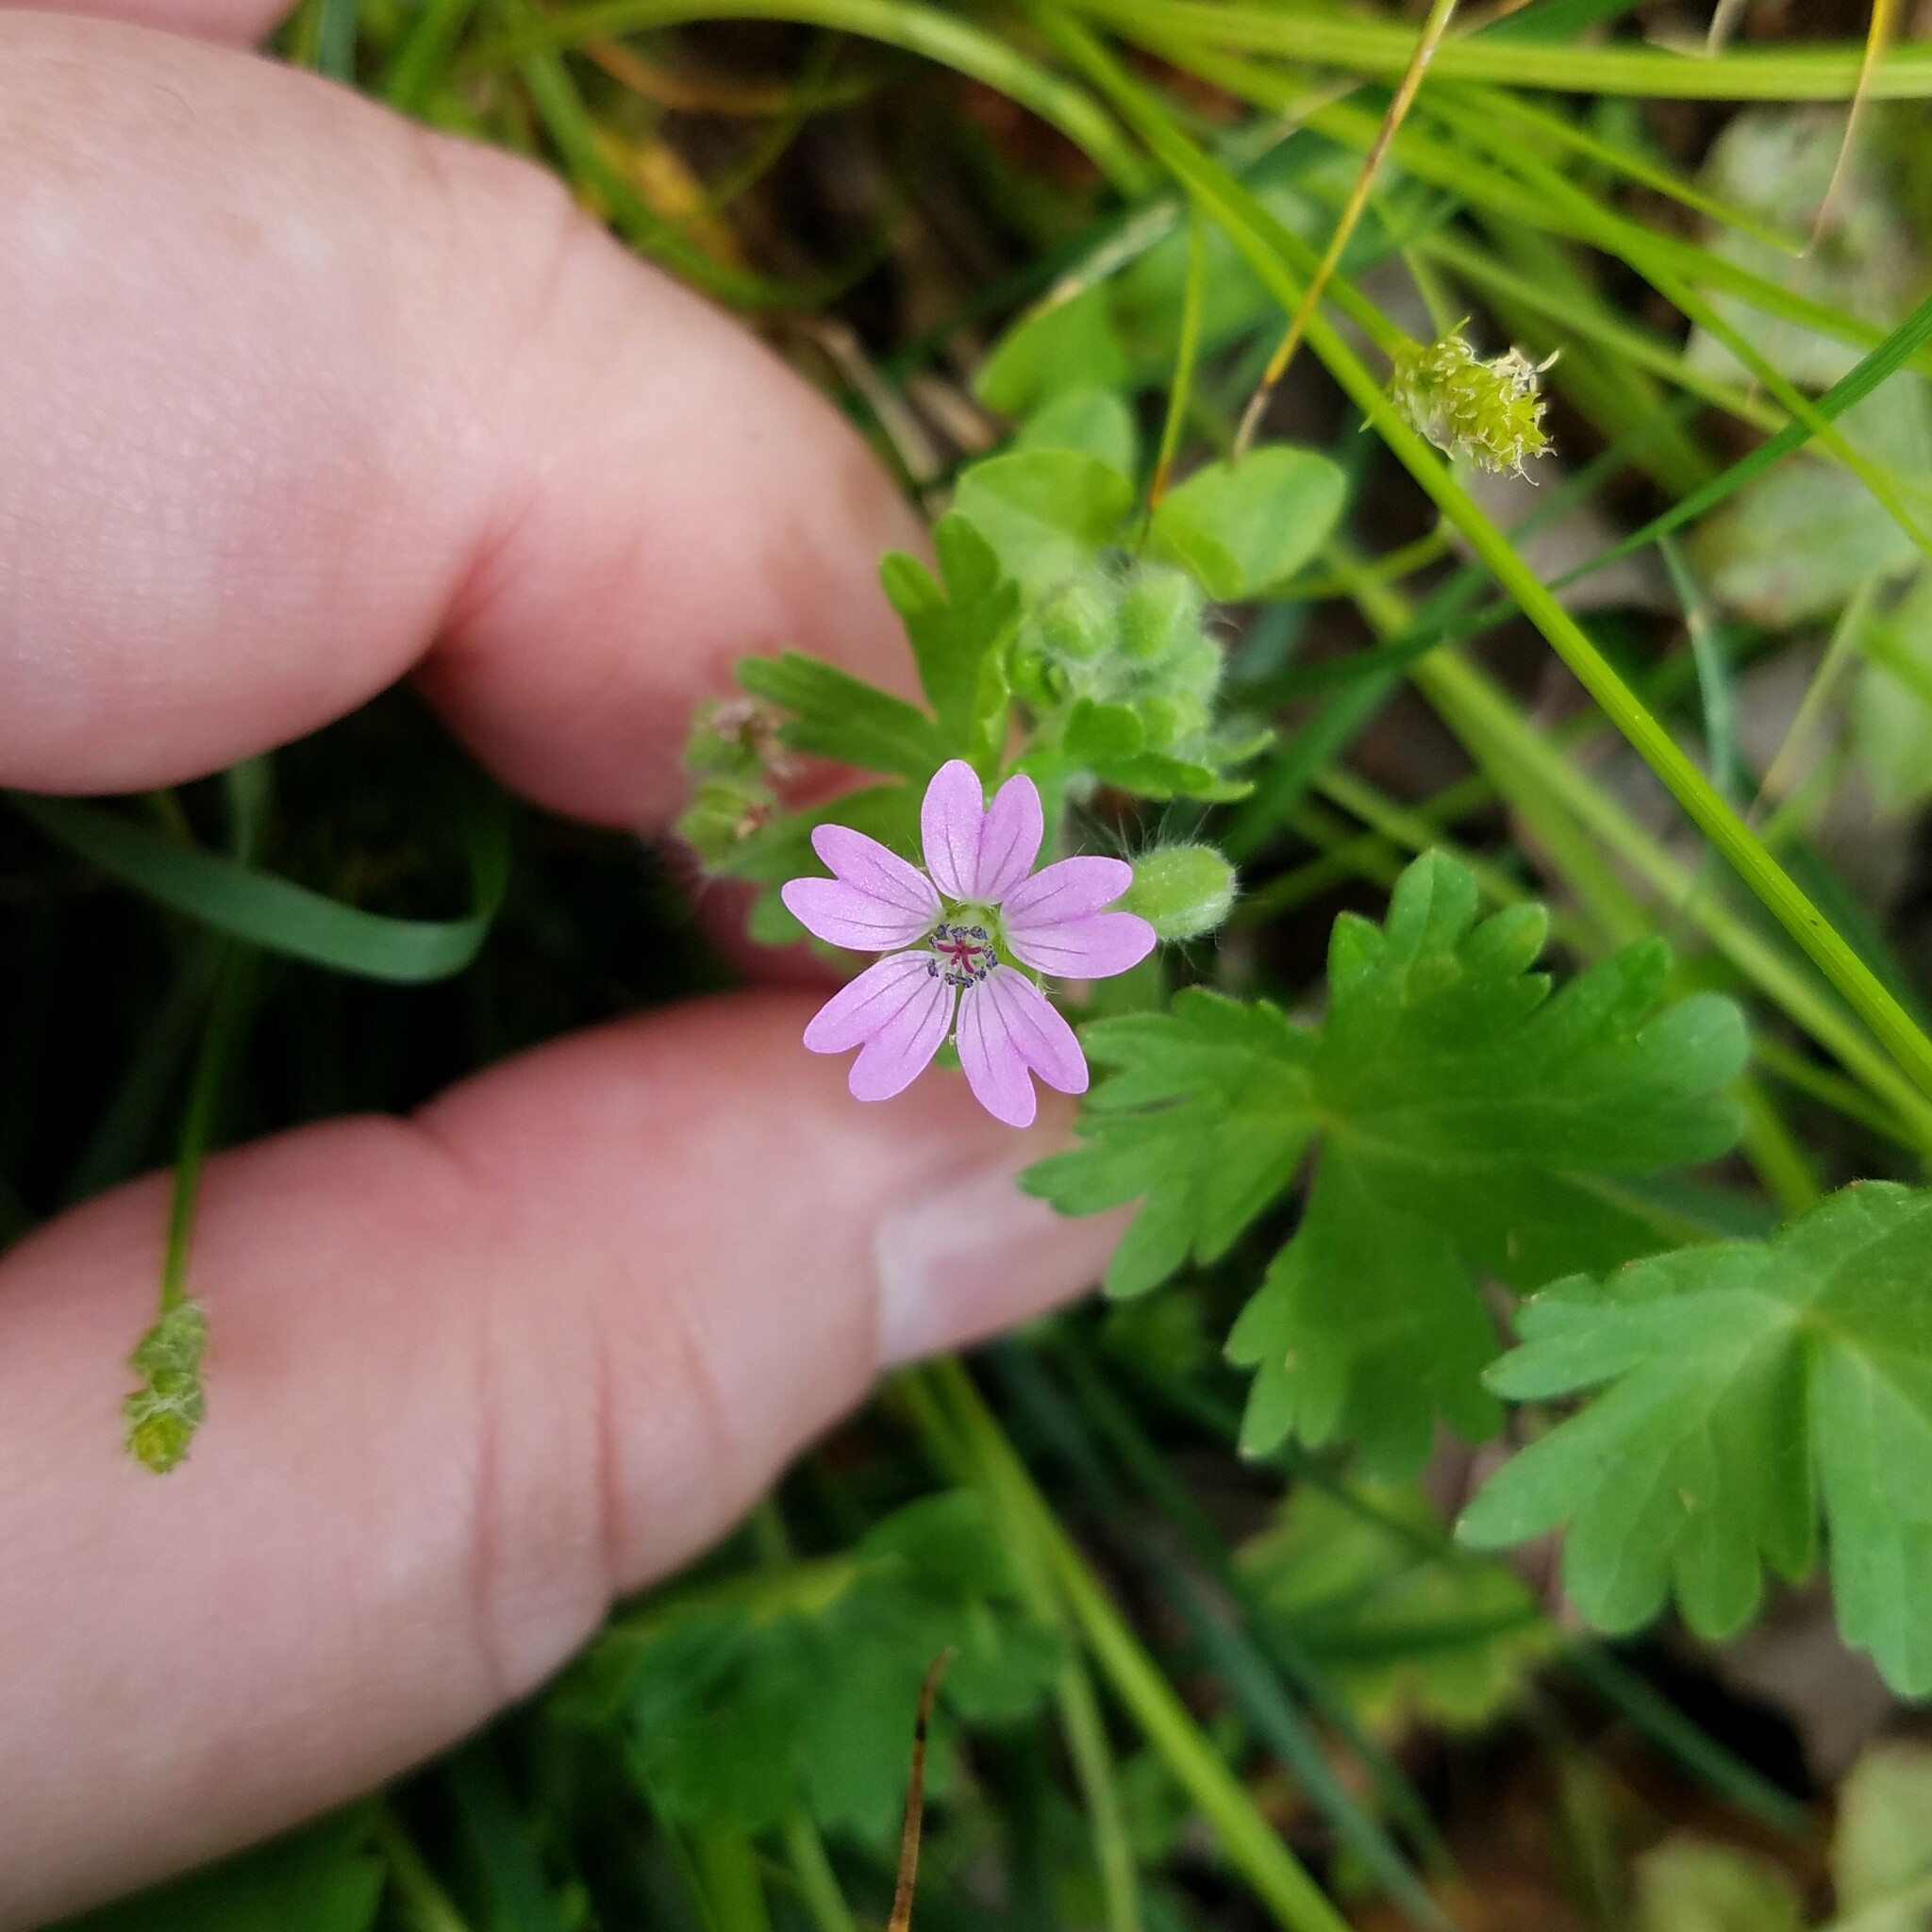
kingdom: Plantae
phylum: Tracheophyta
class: Magnoliopsida
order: Geraniales
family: Geraniaceae
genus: Geranium
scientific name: Geranium molle
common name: Dove's-foot crane's-bill
